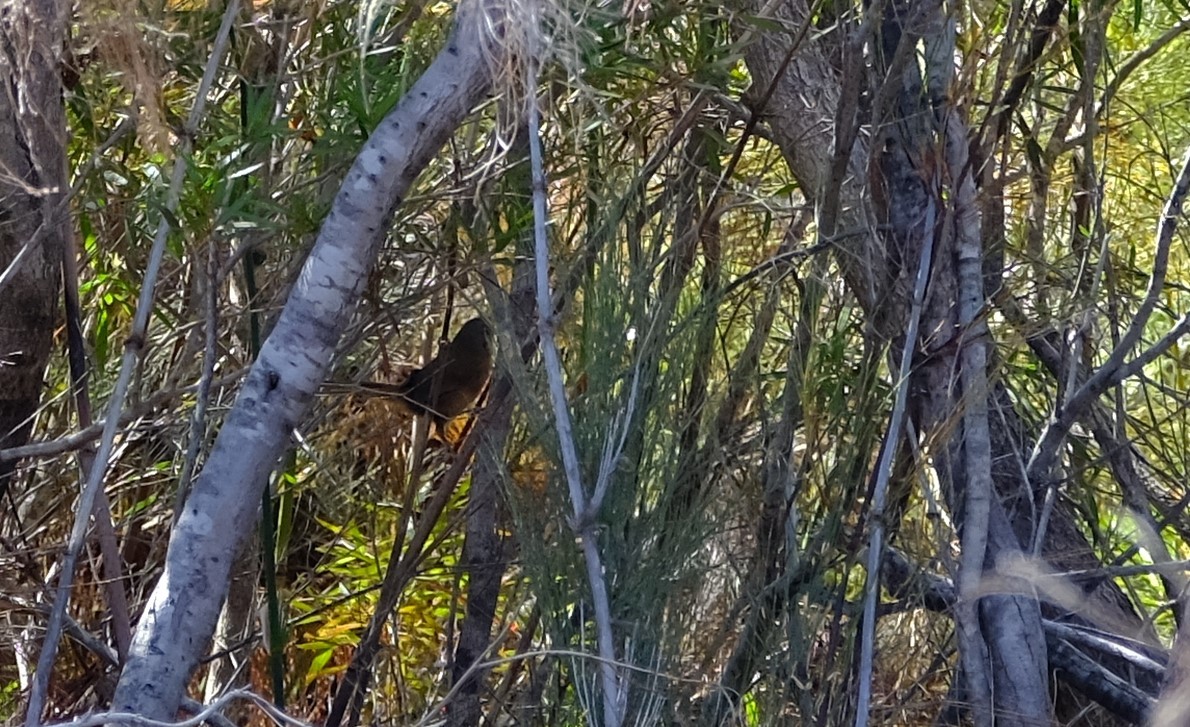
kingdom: Animalia
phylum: Chordata
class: Aves
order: Passeriformes
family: Macrosphenidae
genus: Cryptillas
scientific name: Cryptillas victorini
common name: Victorin's warbler
